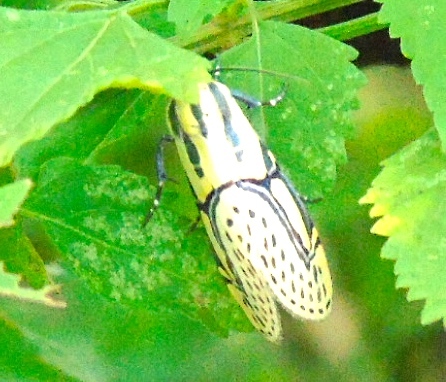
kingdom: Animalia
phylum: Arthropoda
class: Insecta
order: Lepidoptera
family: Erebidae
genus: Diphthera
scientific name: Diphthera festiva
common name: Hieroglyphic moth
